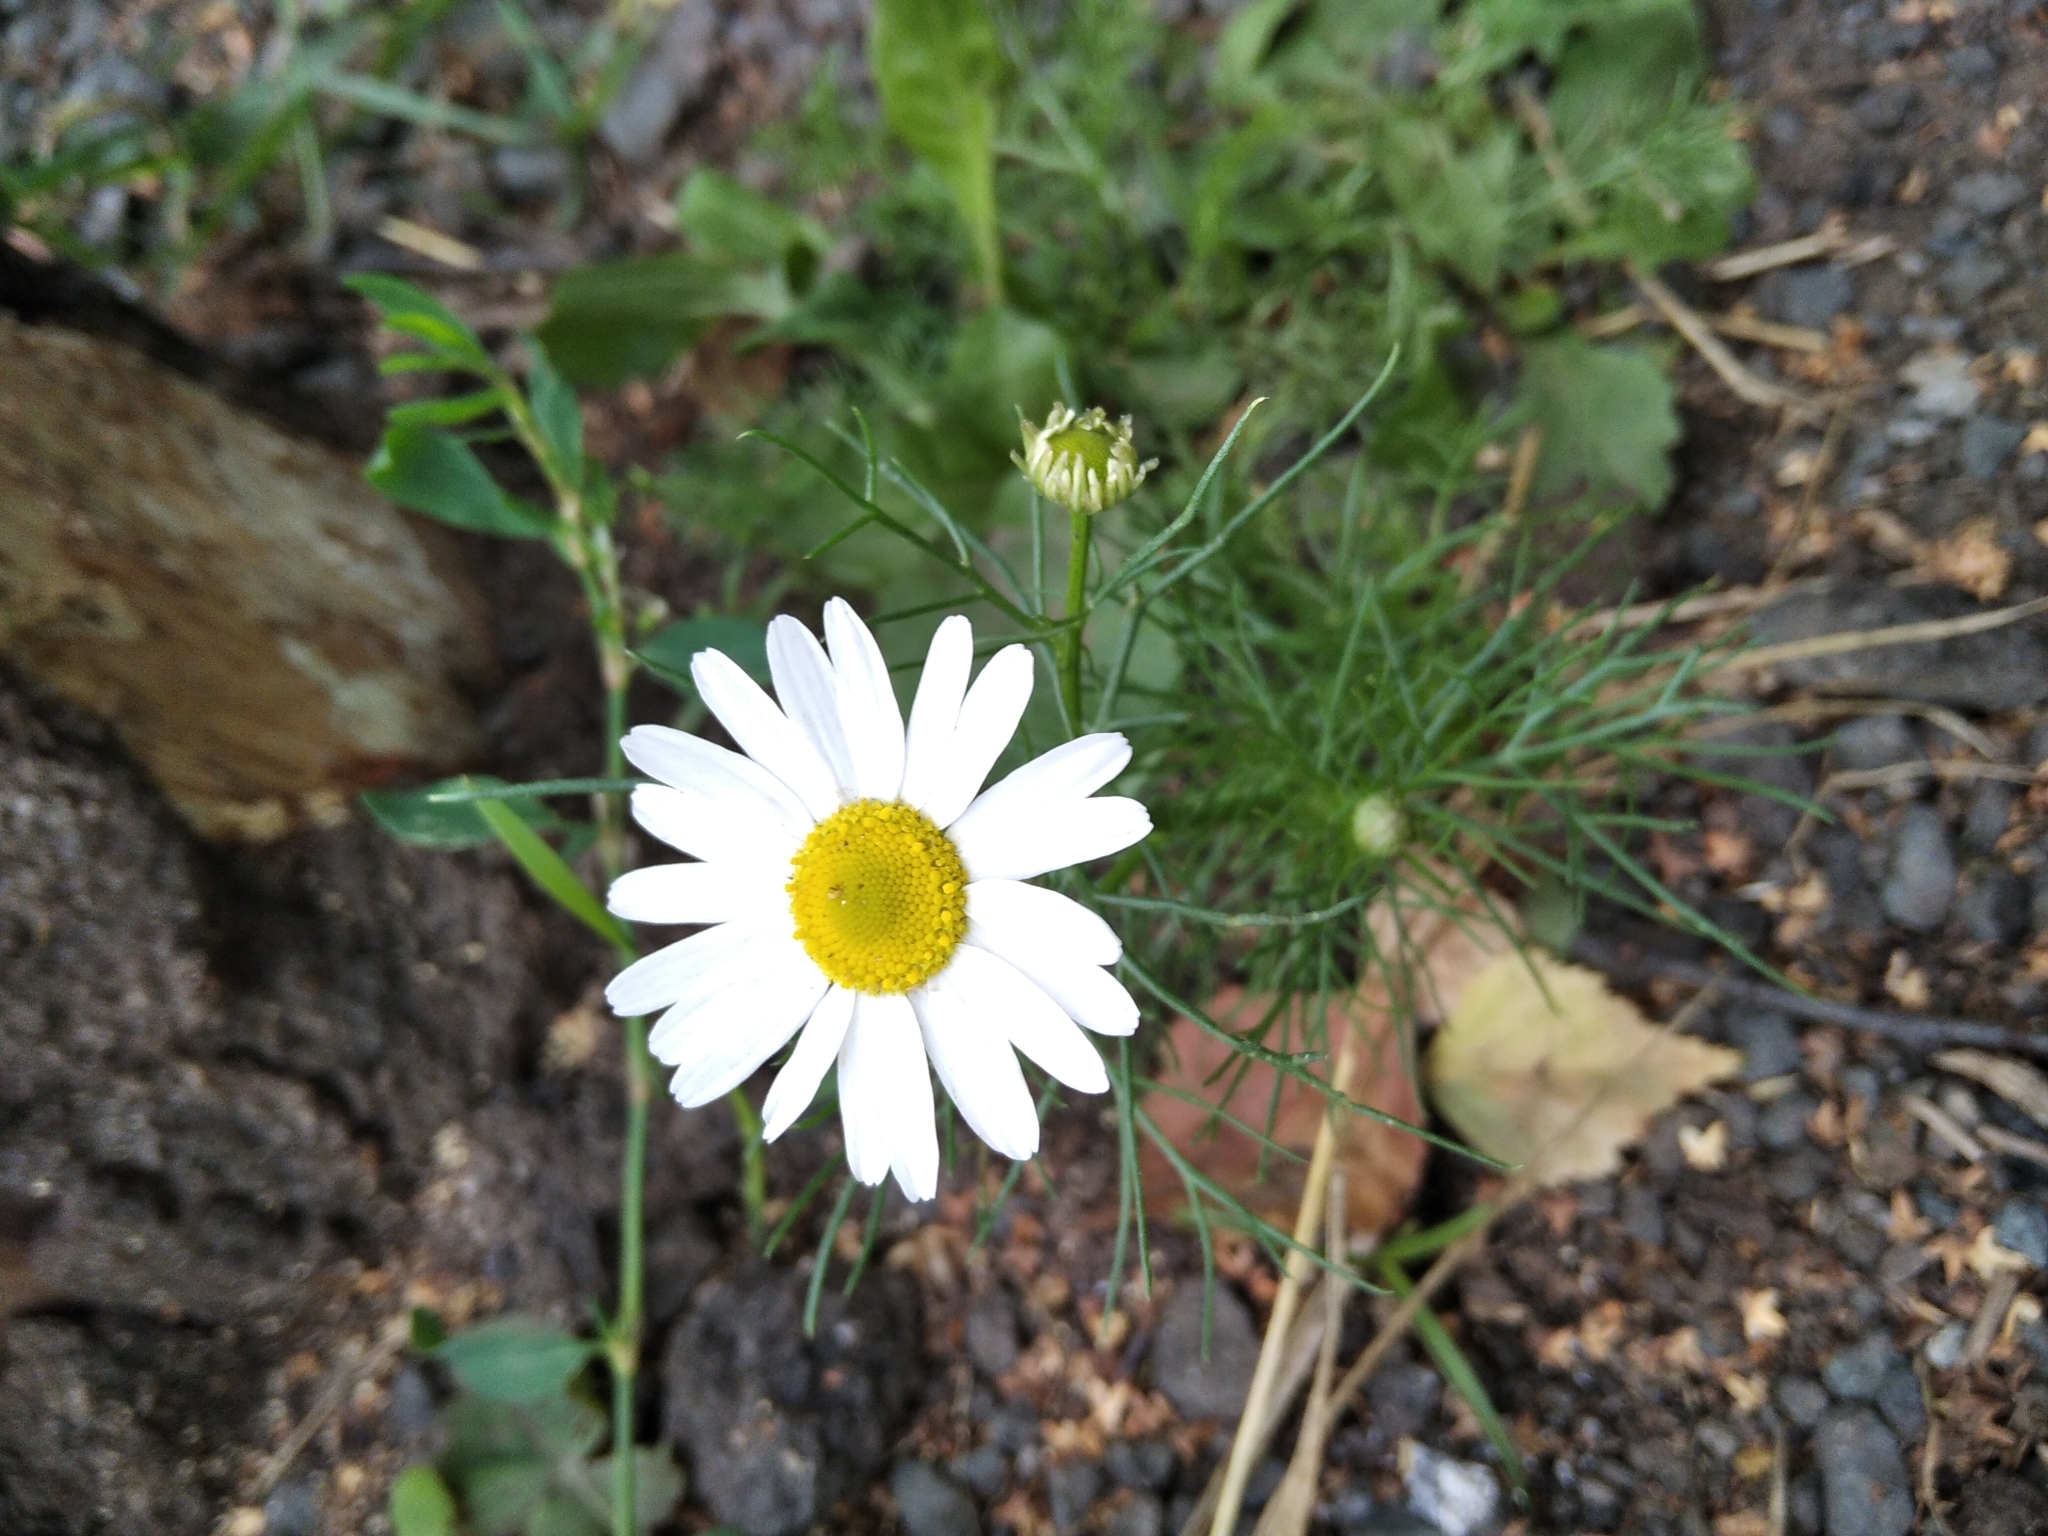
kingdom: Plantae
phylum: Tracheophyta
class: Magnoliopsida
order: Asterales
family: Asteraceae
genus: Tripleurospermum
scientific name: Tripleurospermum inodorum
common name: Scentless mayweed
